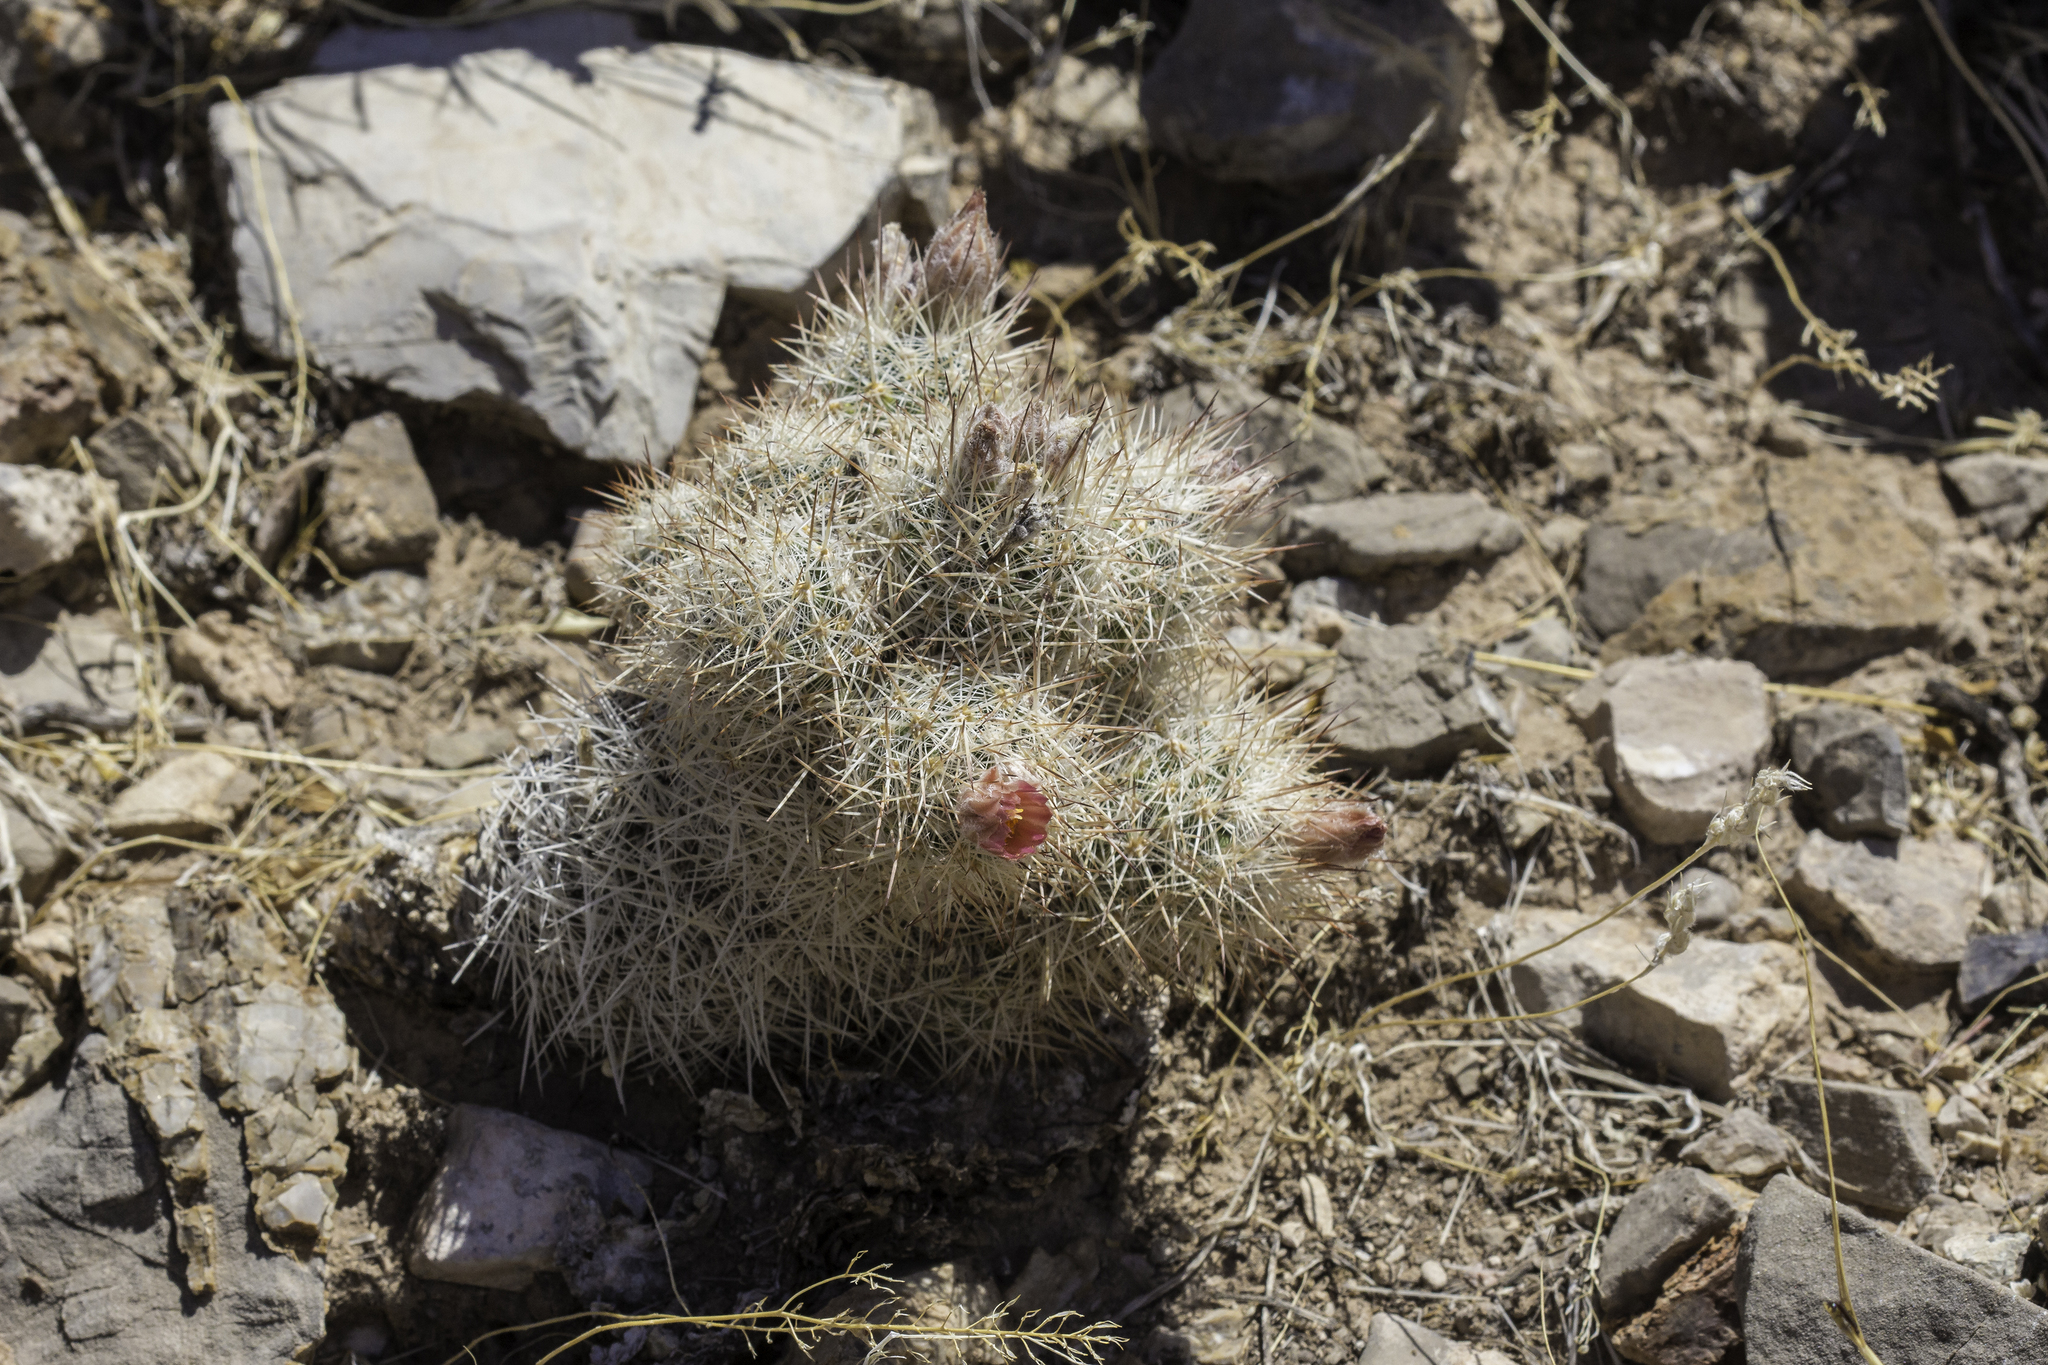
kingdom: Plantae
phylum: Tracheophyta
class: Magnoliopsida
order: Caryophyllales
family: Cactaceae
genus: Pelecyphora
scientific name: Pelecyphora tuberculosa
